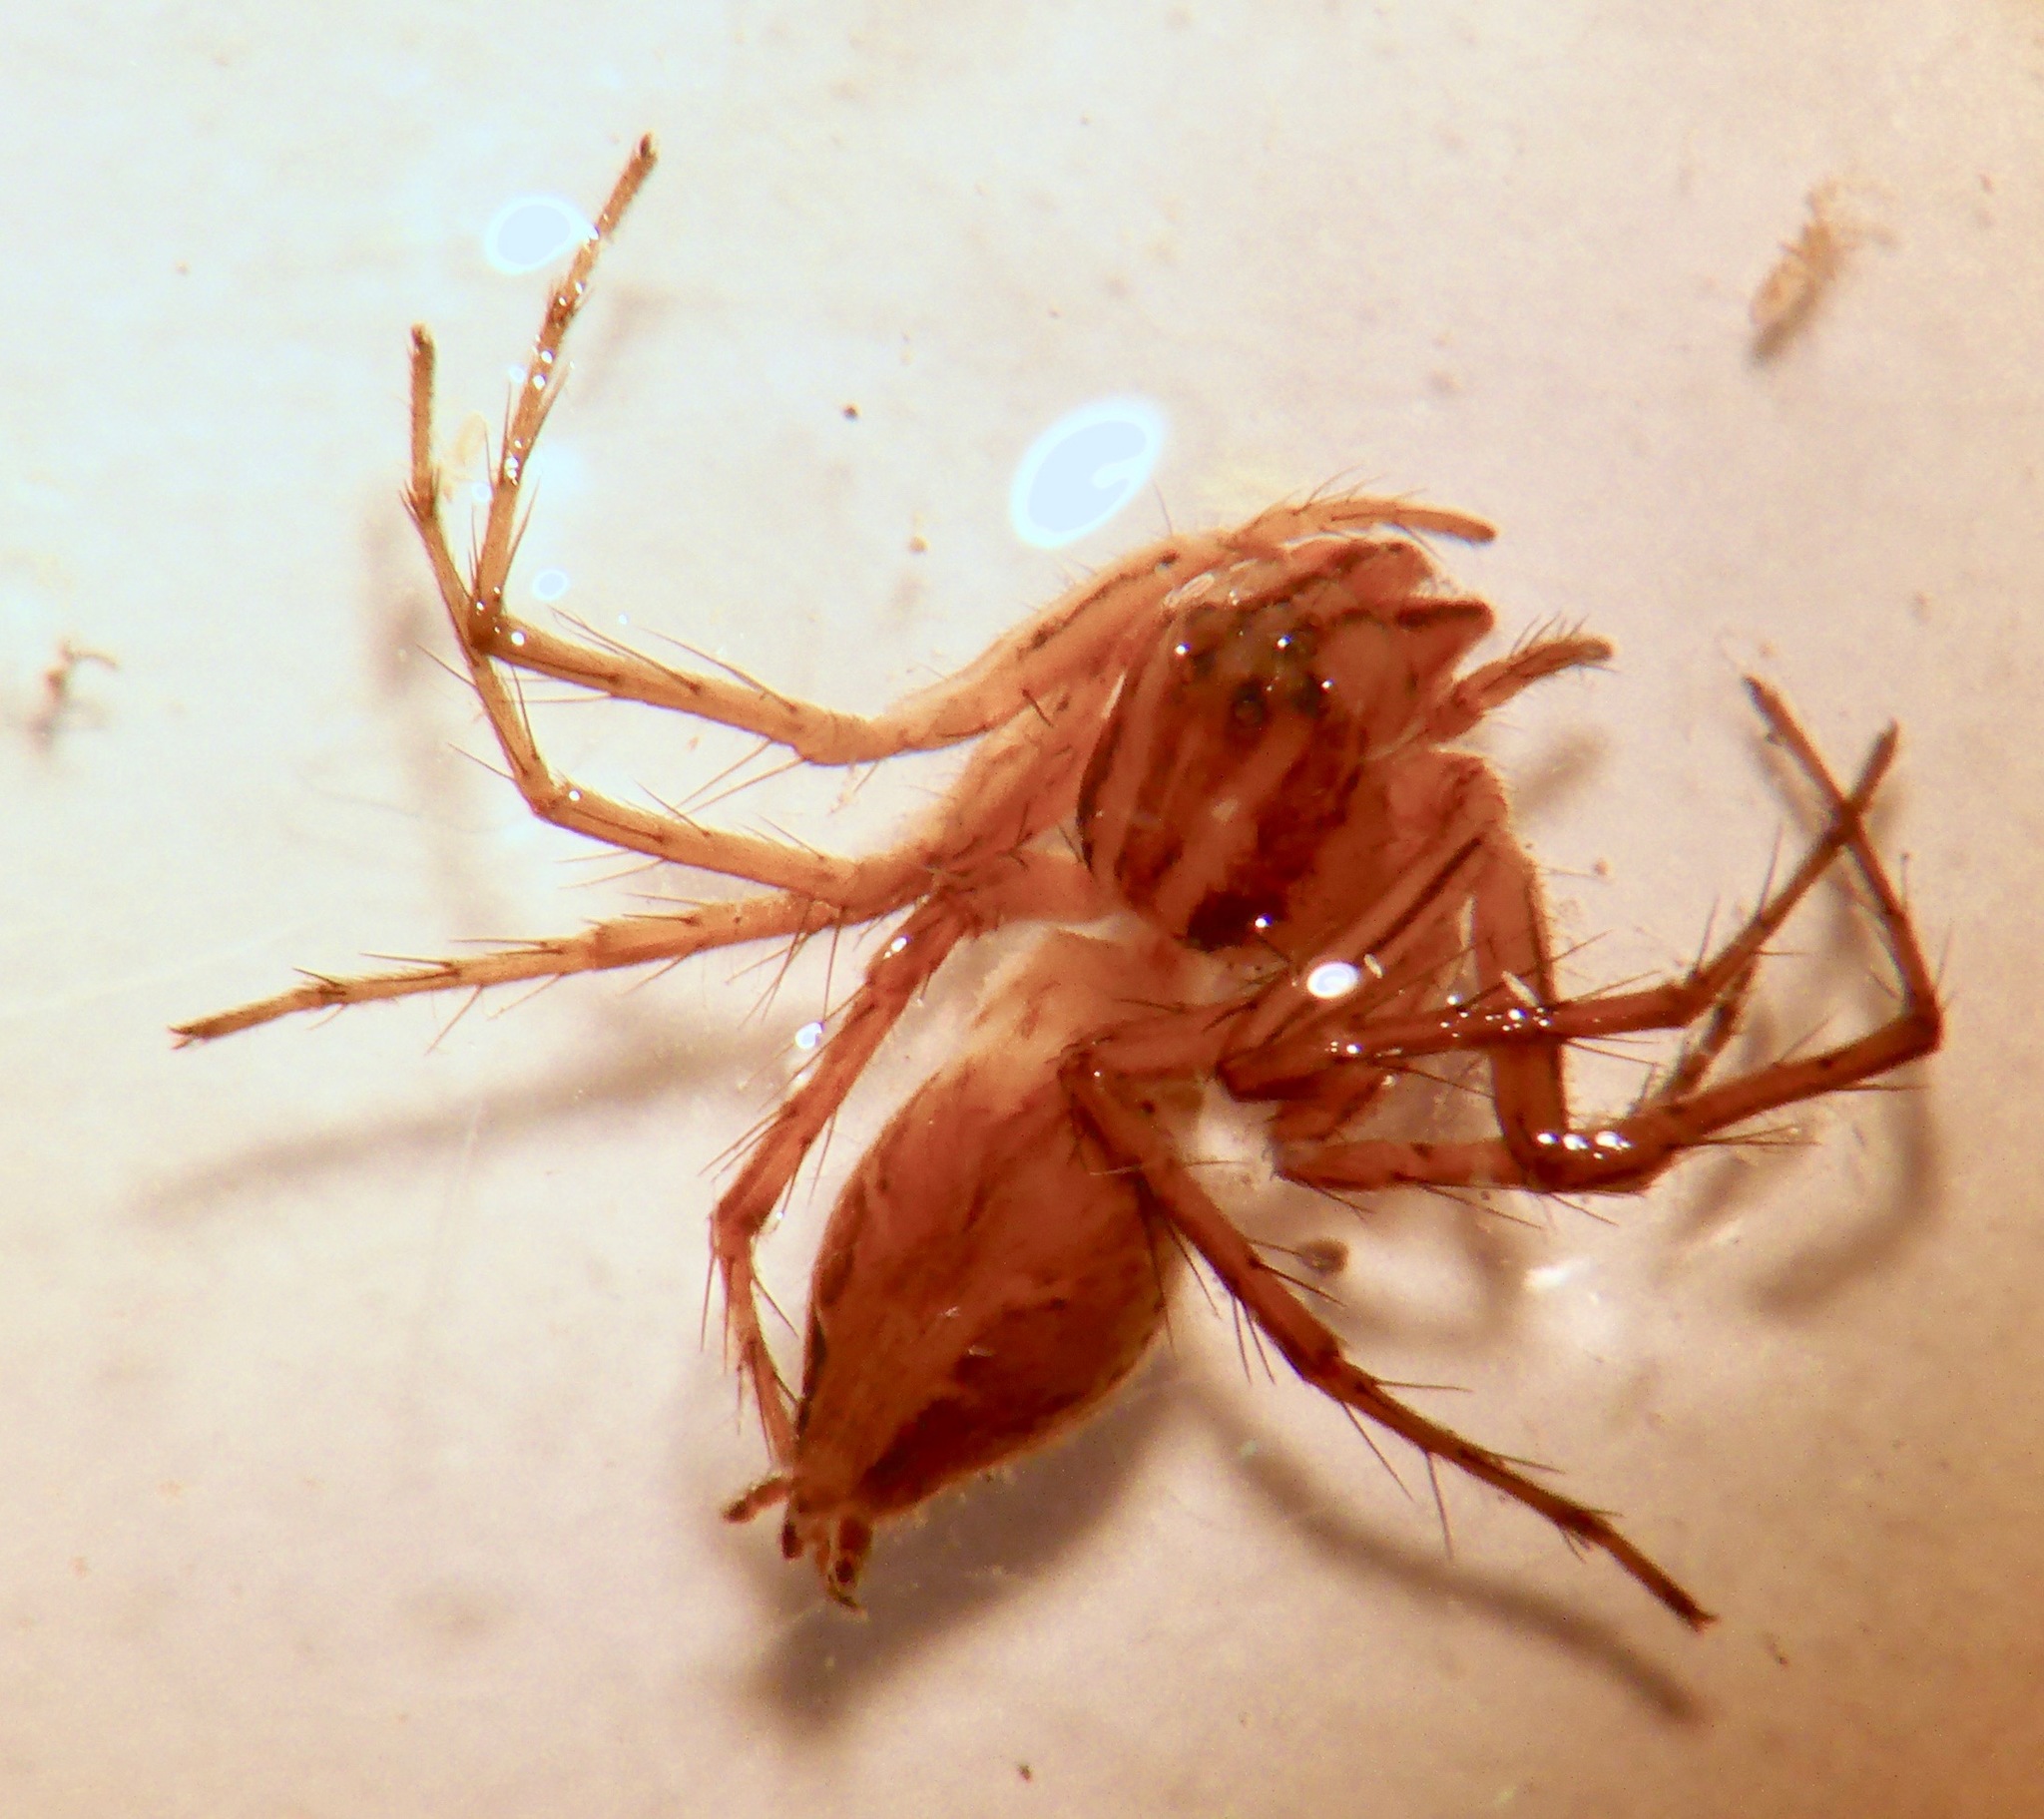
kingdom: Animalia
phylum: Arthropoda
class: Arachnida
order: Araneae
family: Oxyopidae
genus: Oxyopes
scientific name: Oxyopes gracilipes
